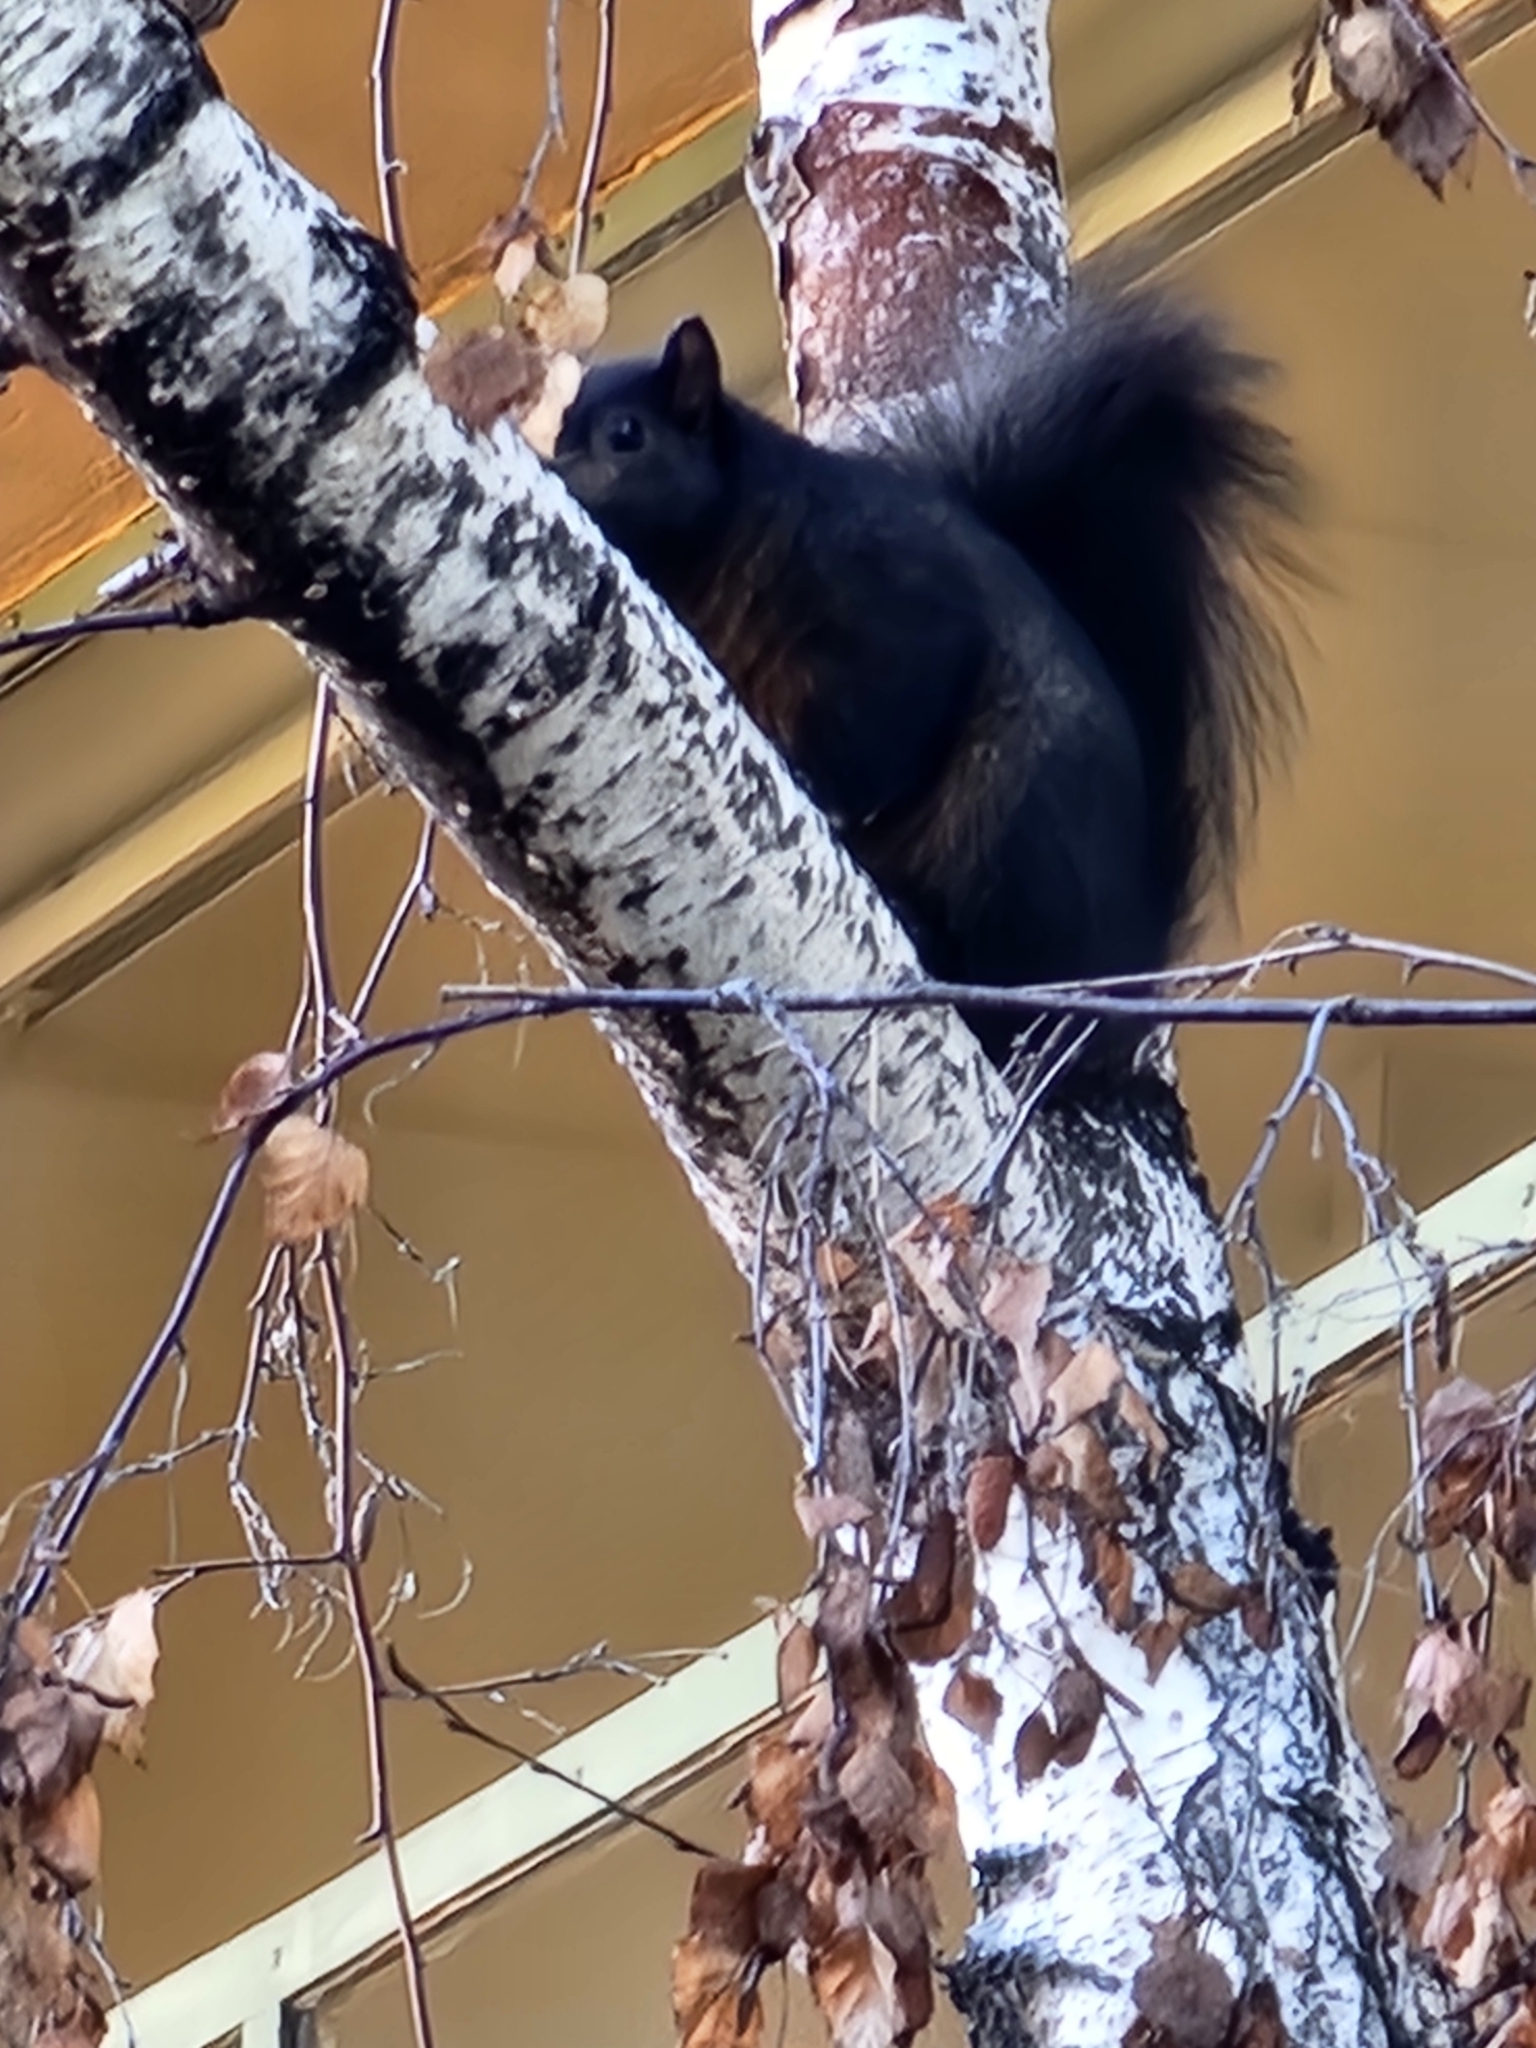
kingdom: Animalia
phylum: Chordata
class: Mammalia
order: Rodentia
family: Sciuridae
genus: Sciurus
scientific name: Sciurus carolinensis
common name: Eastern gray squirrel
